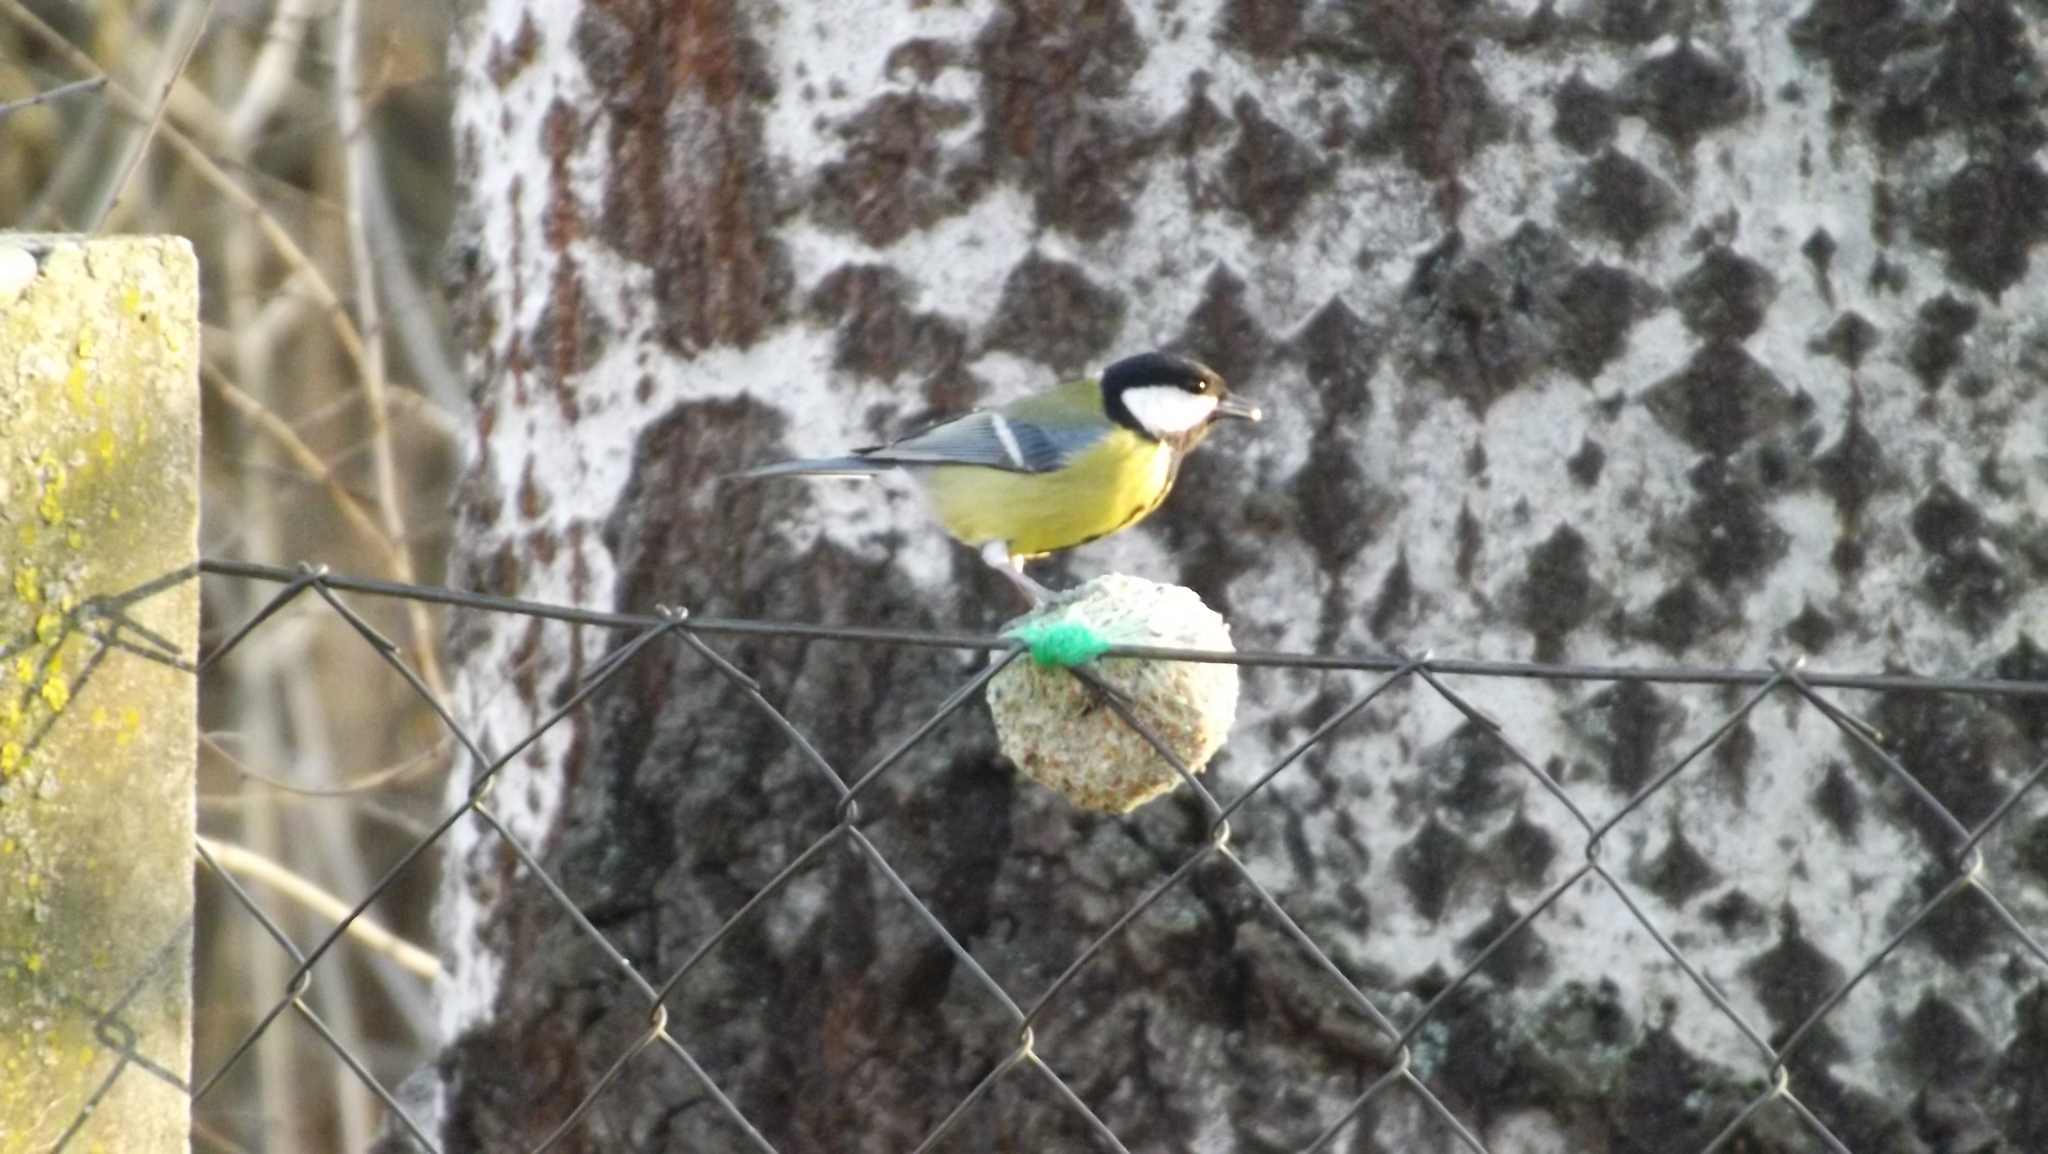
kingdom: Animalia
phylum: Chordata
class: Aves
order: Passeriformes
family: Paridae
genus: Parus
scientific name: Parus major
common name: Great tit
